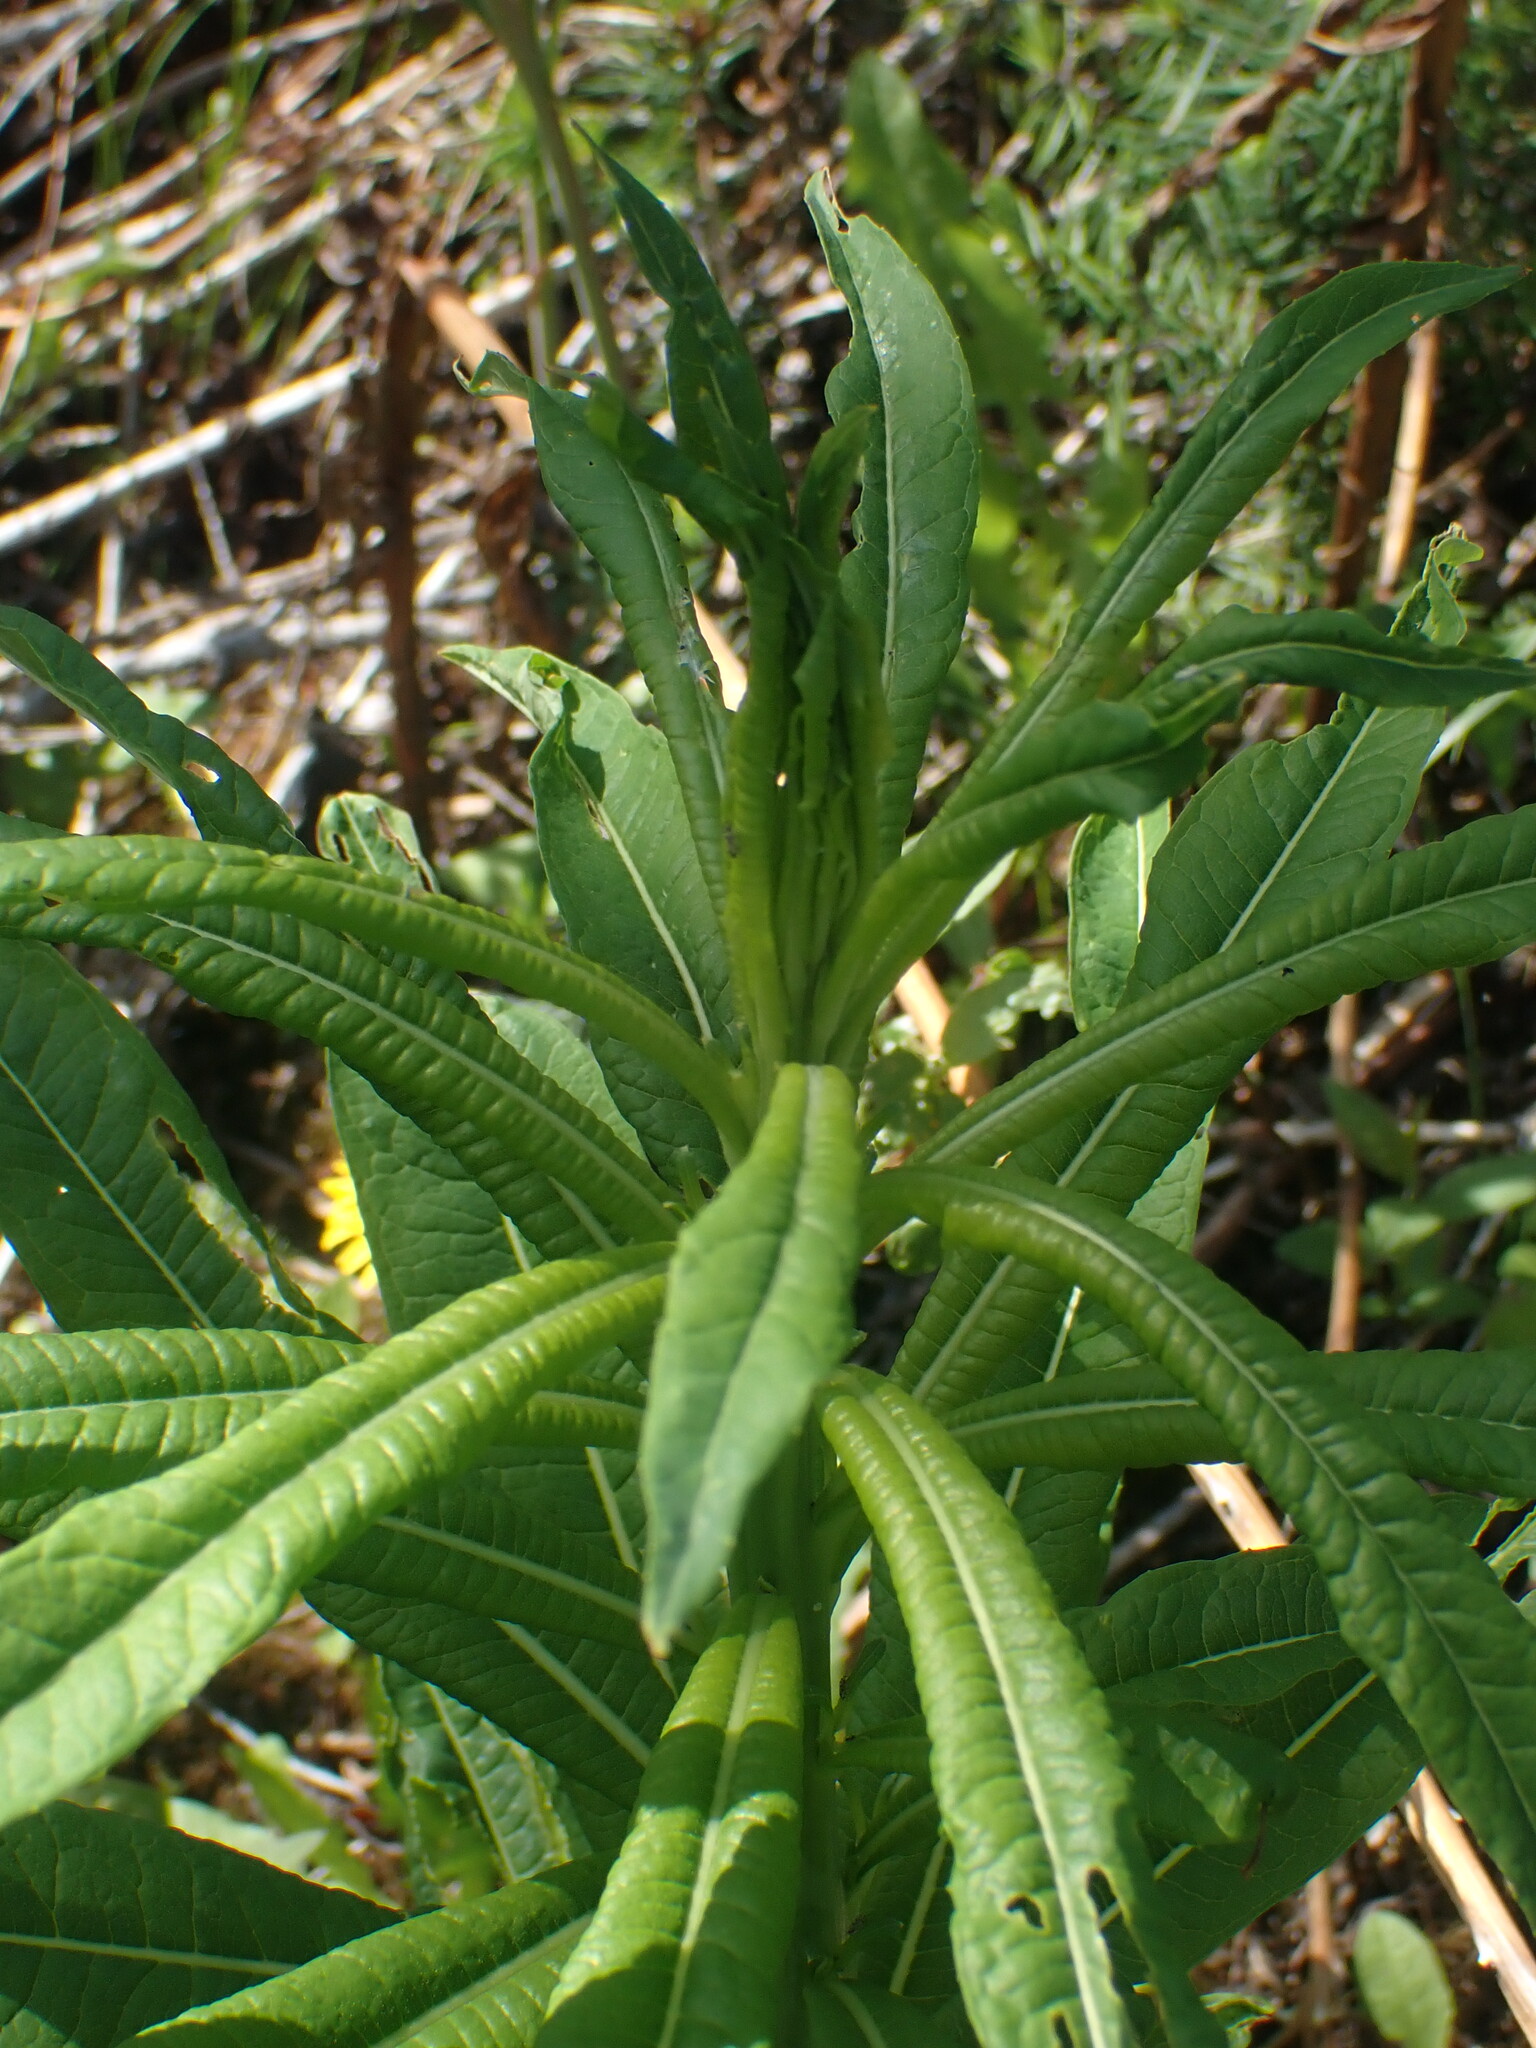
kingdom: Plantae
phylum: Tracheophyta
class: Magnoliopsida
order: Myrtales
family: Onagraceae
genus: Chamaenerion
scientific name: Chamaenerion angustifolium
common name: Fireweed
